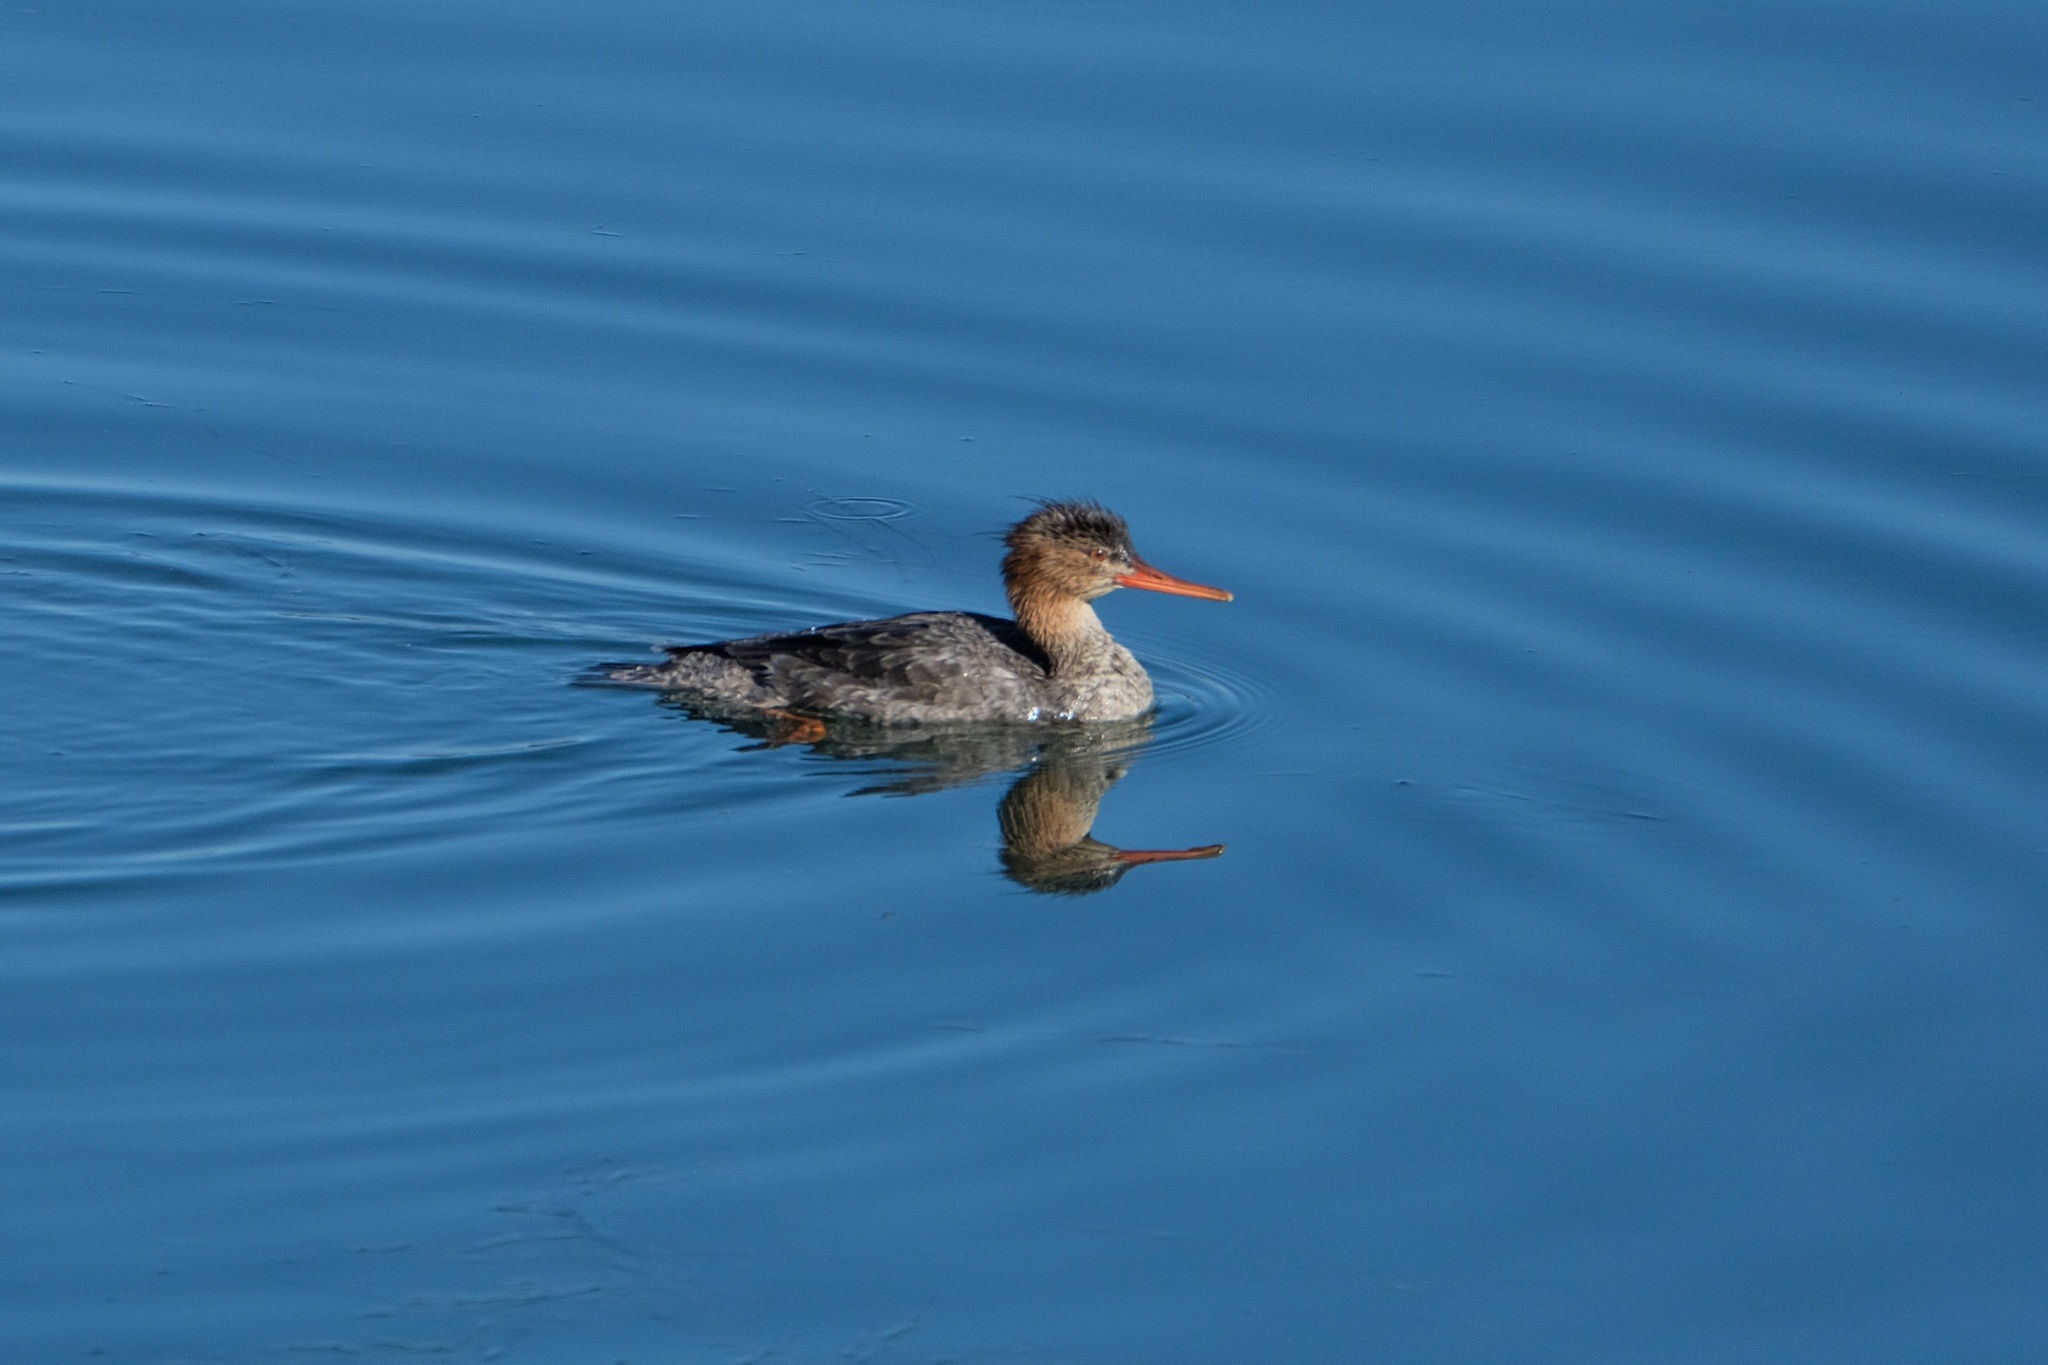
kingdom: Animalia
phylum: Chordata
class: Aves
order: Anseriformes
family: Anatidae
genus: Mergus
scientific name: Mergus serrator
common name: Red-breasted merganser
